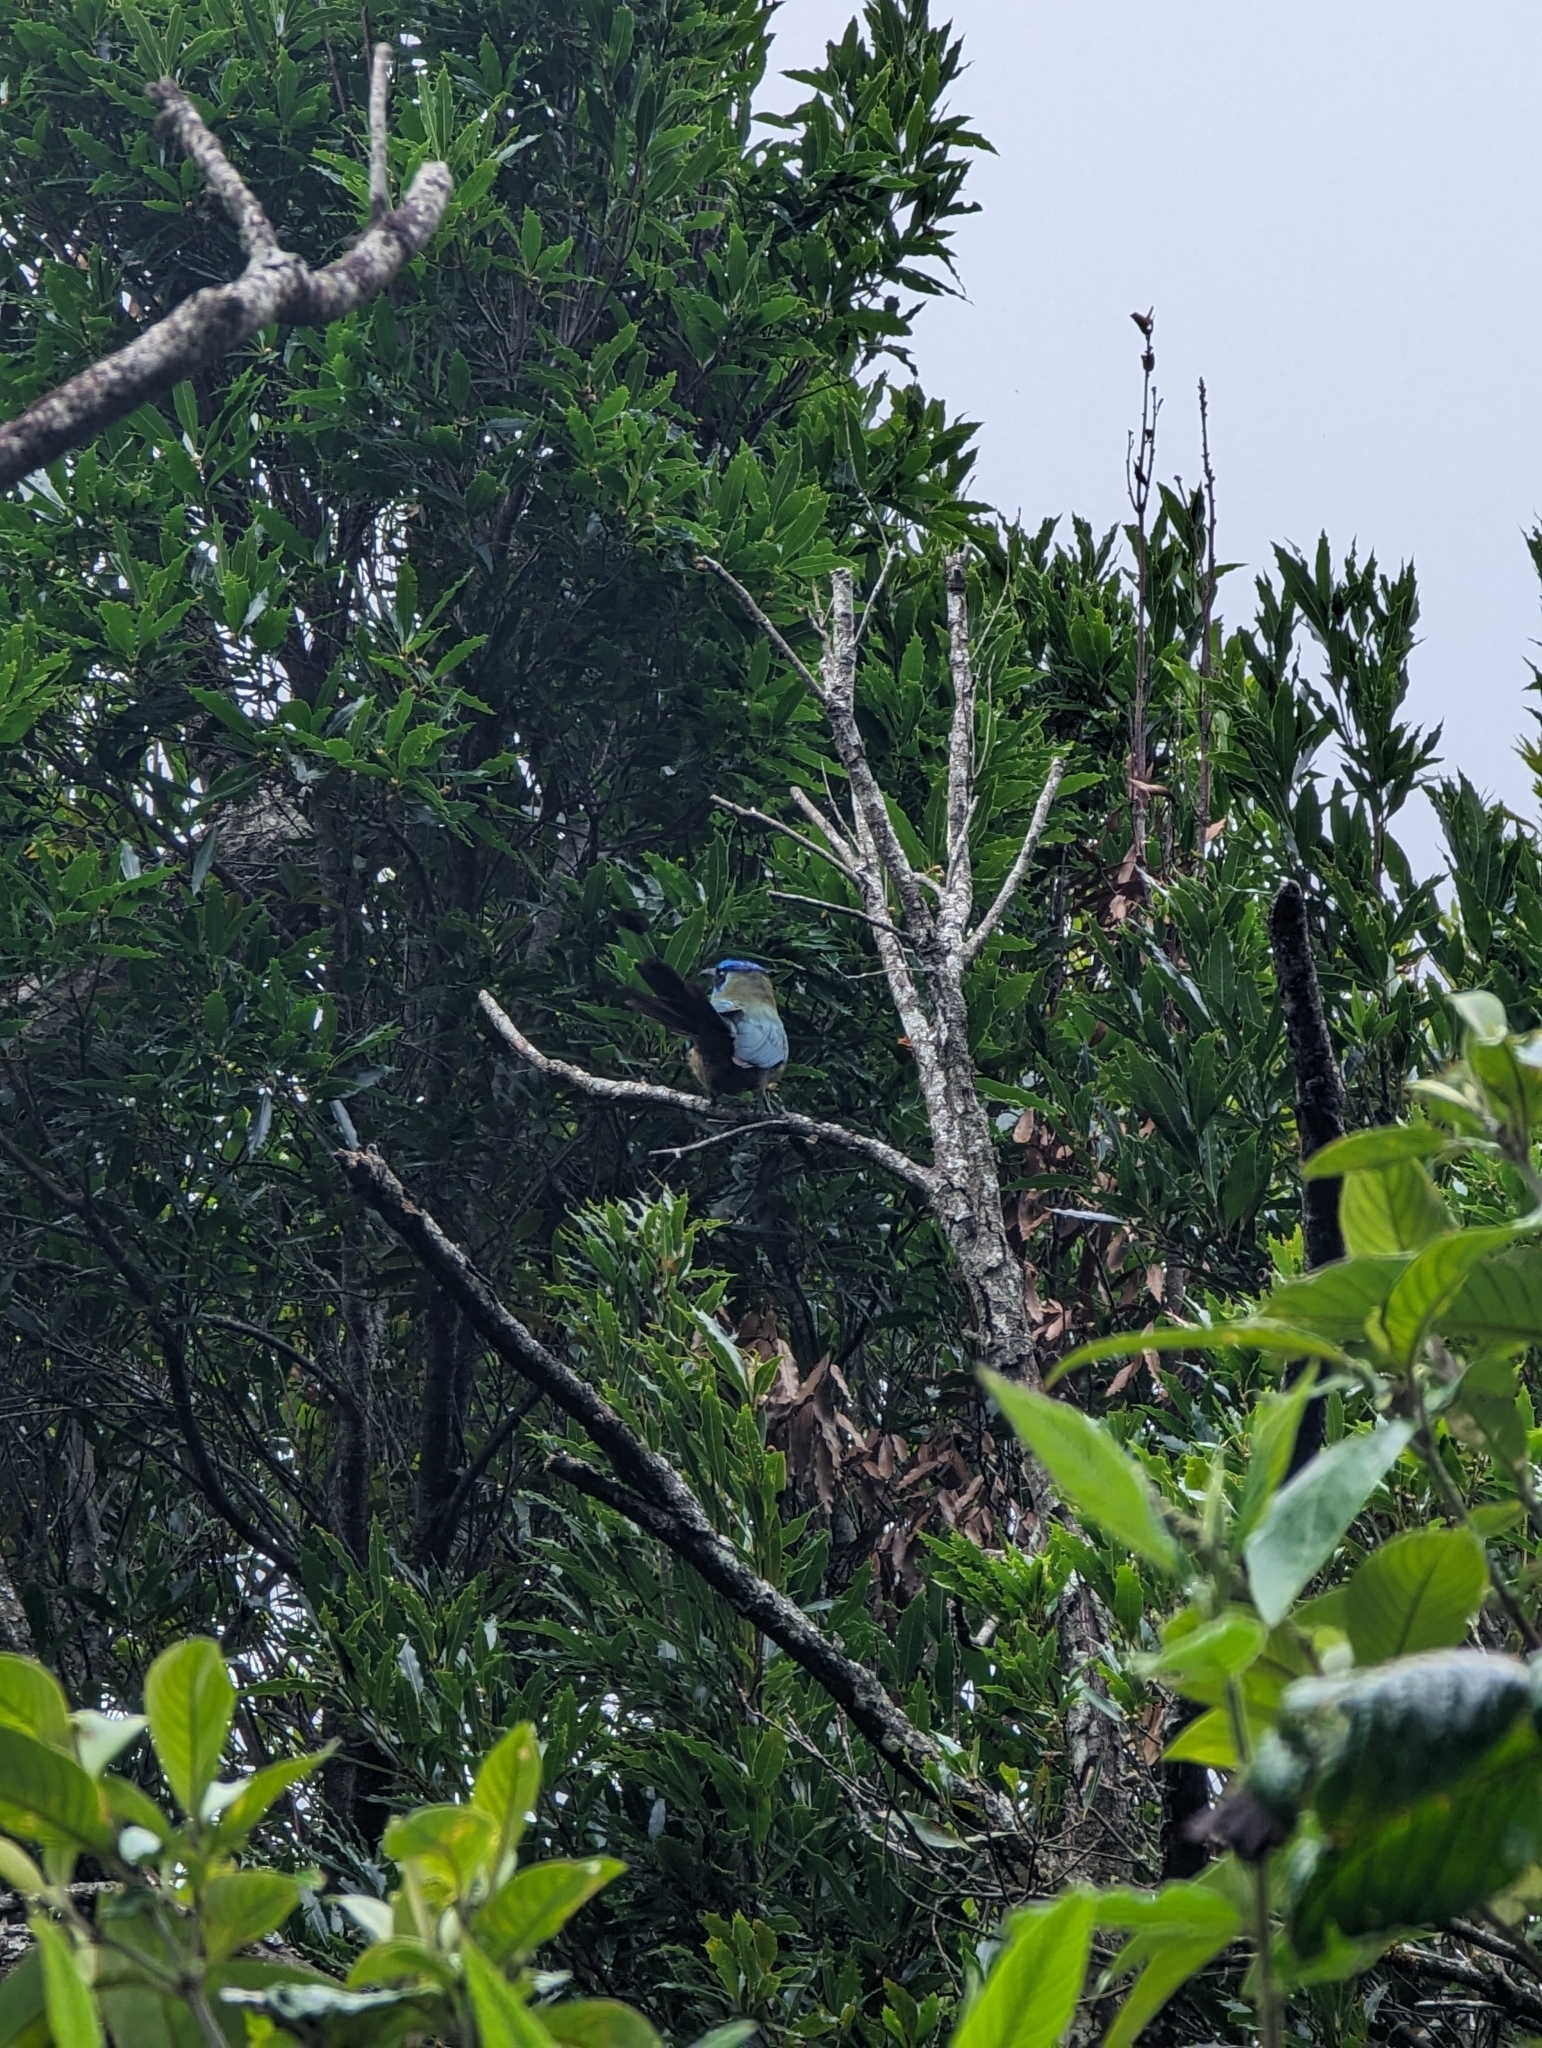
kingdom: Animalia
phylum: Chordata
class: Aves
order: Coraciiformes
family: Momotidae
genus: Momotus
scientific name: Momotus lessonii
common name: Lesson's motmot
